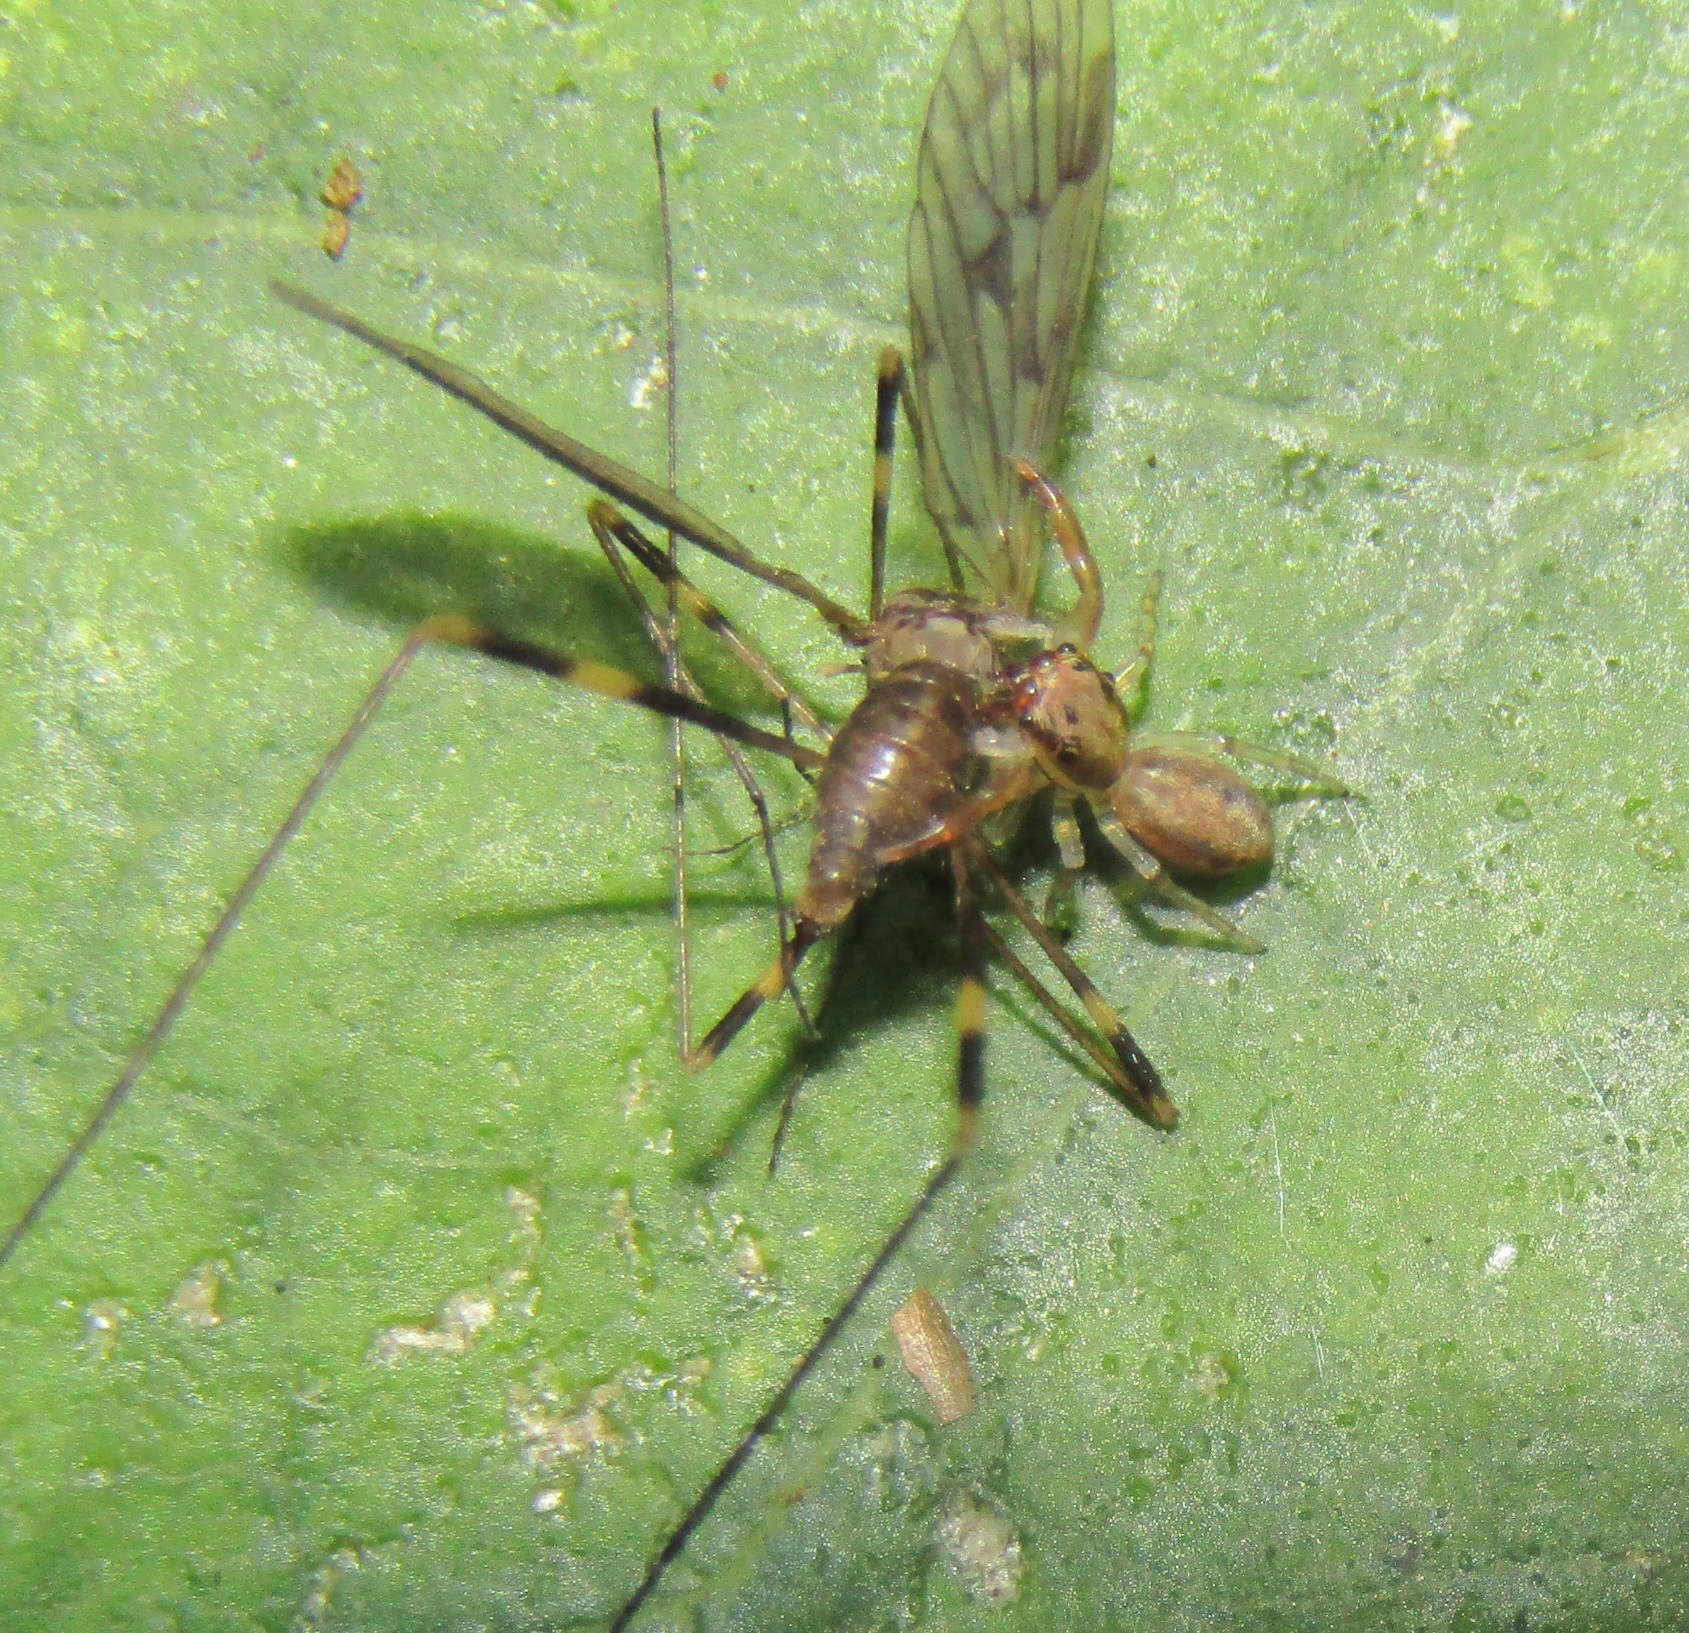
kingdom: Animalia
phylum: Arthropoda
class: Arachnida
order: Araneae
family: Salticidae
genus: Trite
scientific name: Trite mustilina
